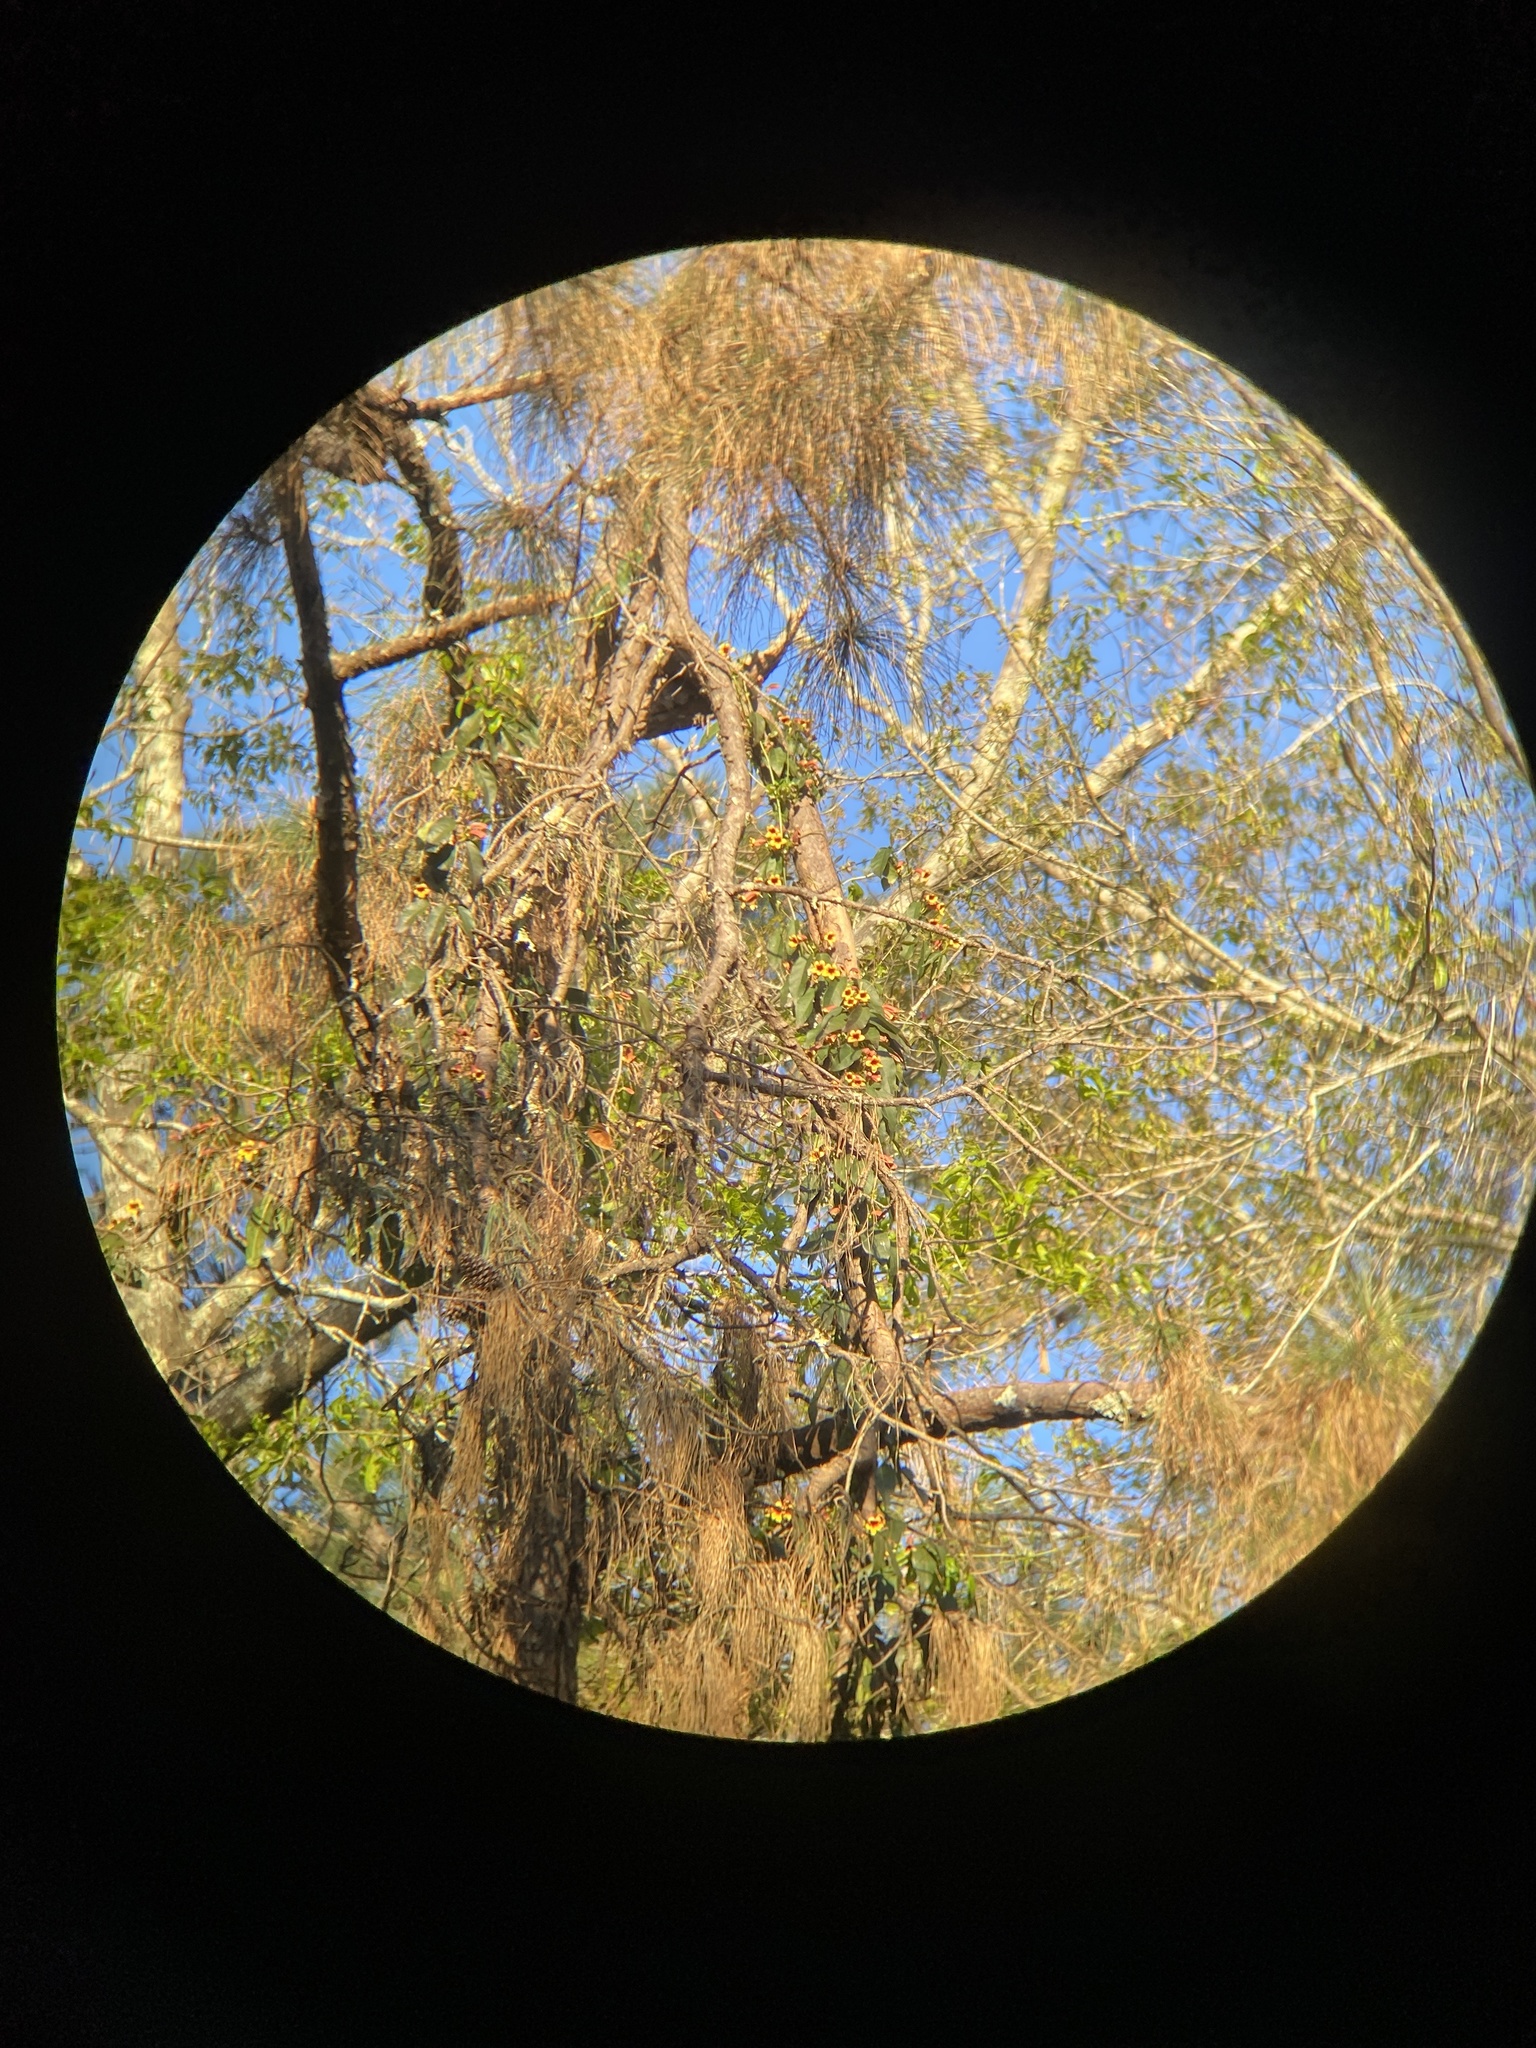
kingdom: Plantae
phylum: Tracheophyta
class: Magnoliopsida
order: Lamiales
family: Bignoniaceae
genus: Bignonia
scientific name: Bignonia capreolata
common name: Crossvine
